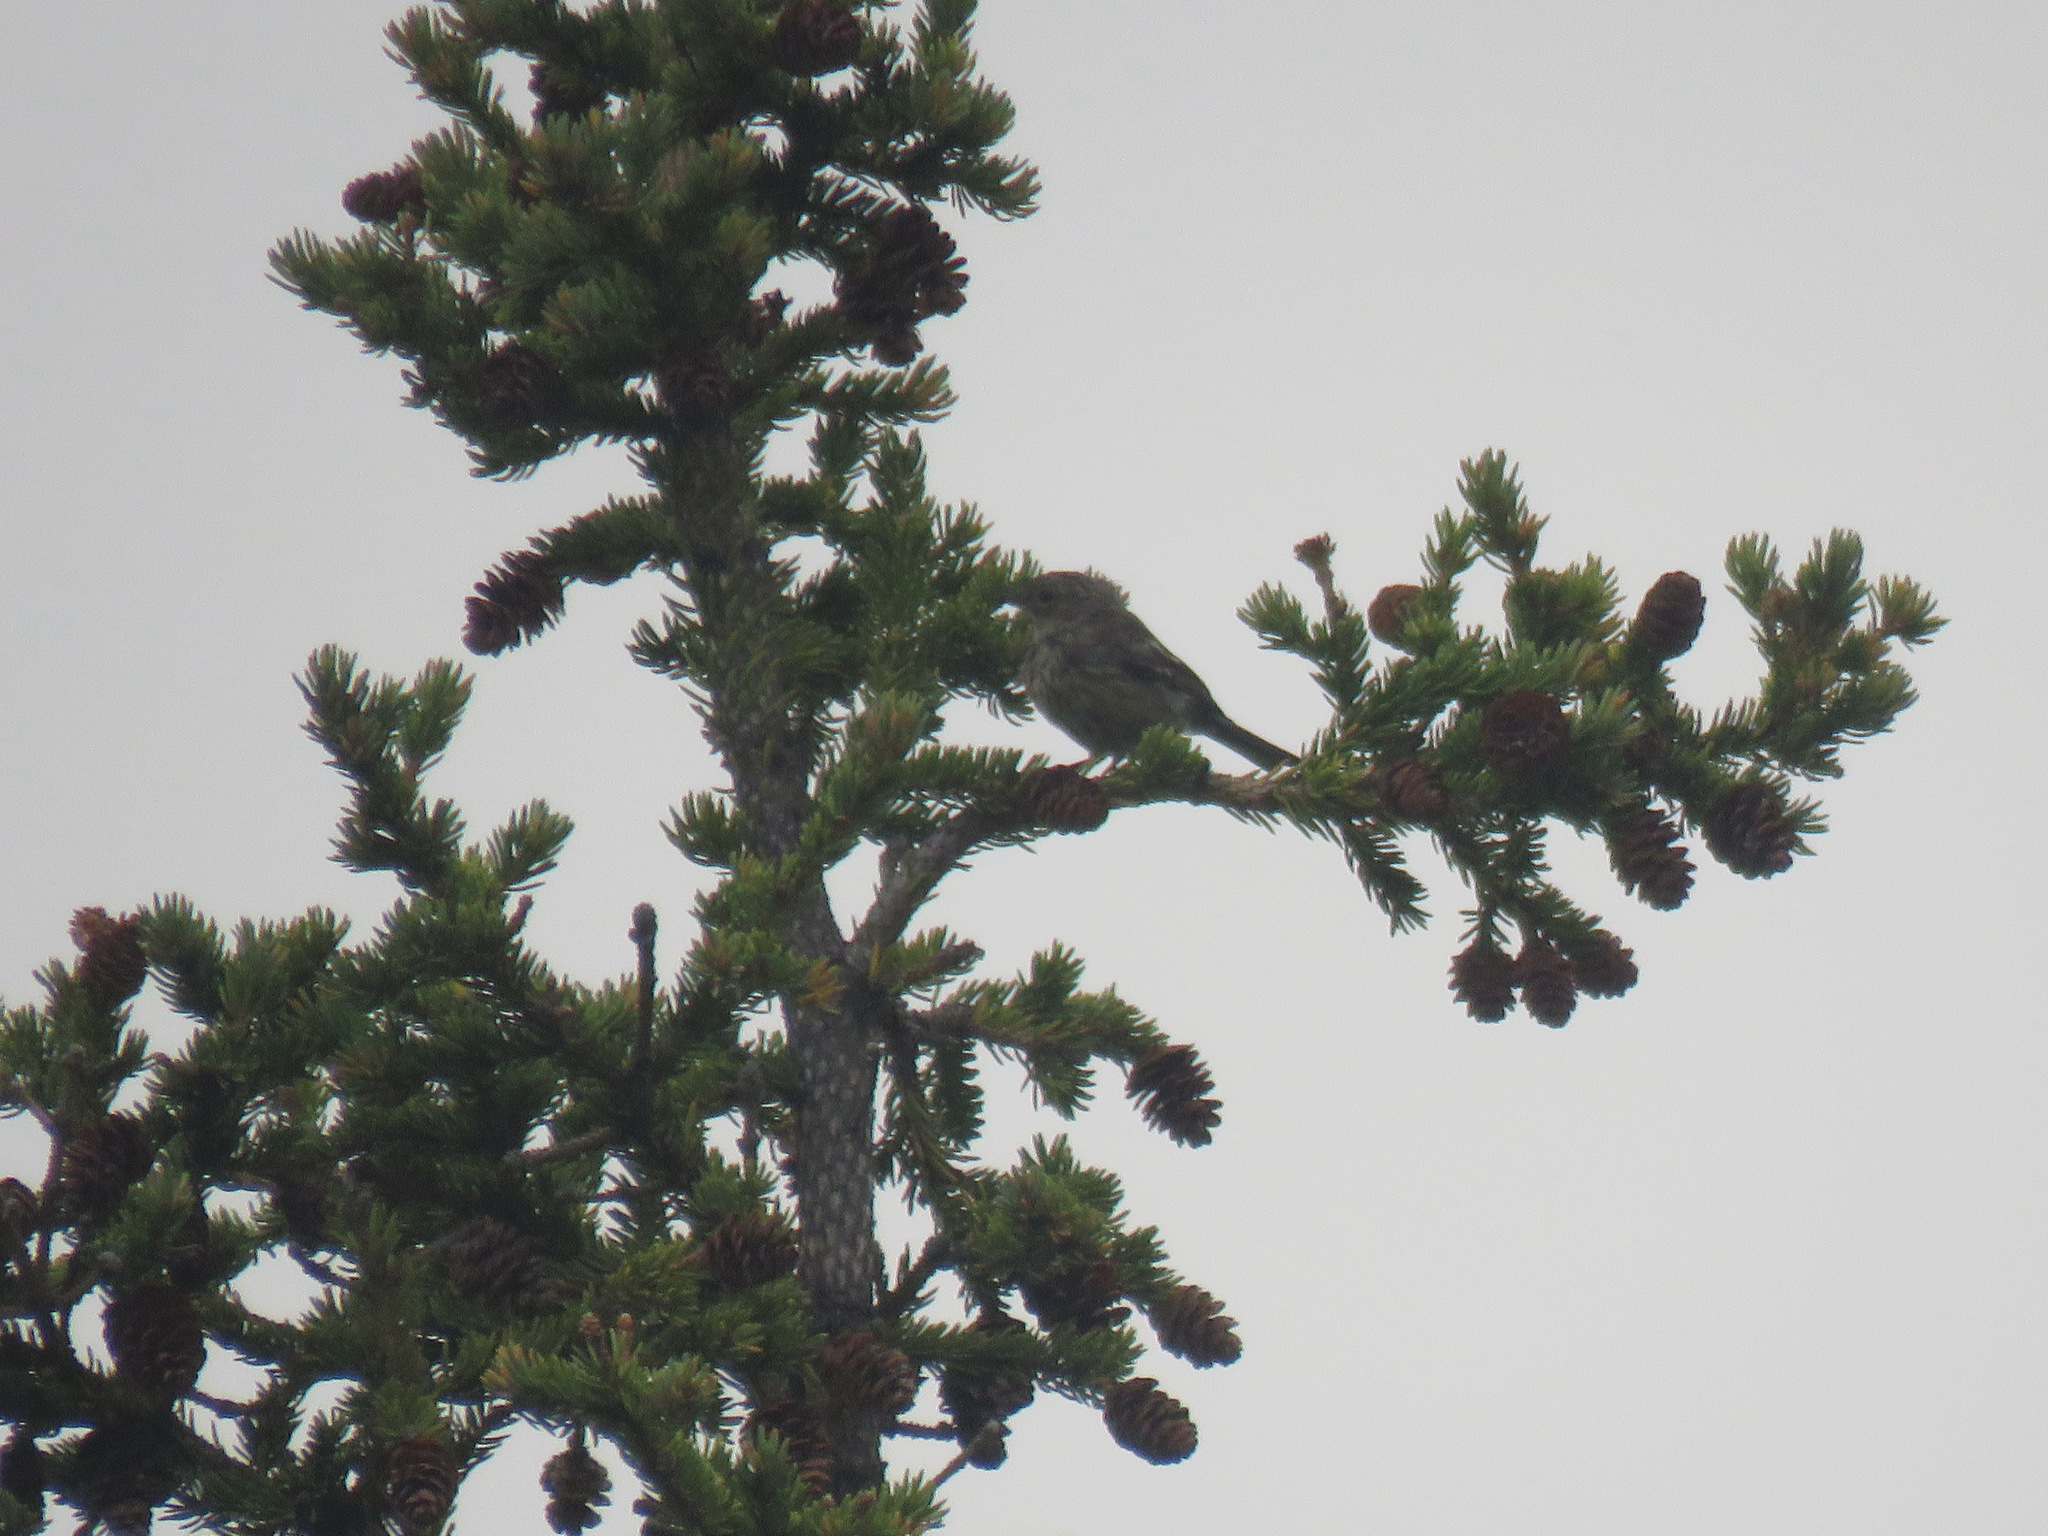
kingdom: Animalia
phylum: Chordata
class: Aves
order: Passeriformes
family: Parulidae
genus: Setophaga
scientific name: Setophaga coronata
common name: Myrtle warbler
